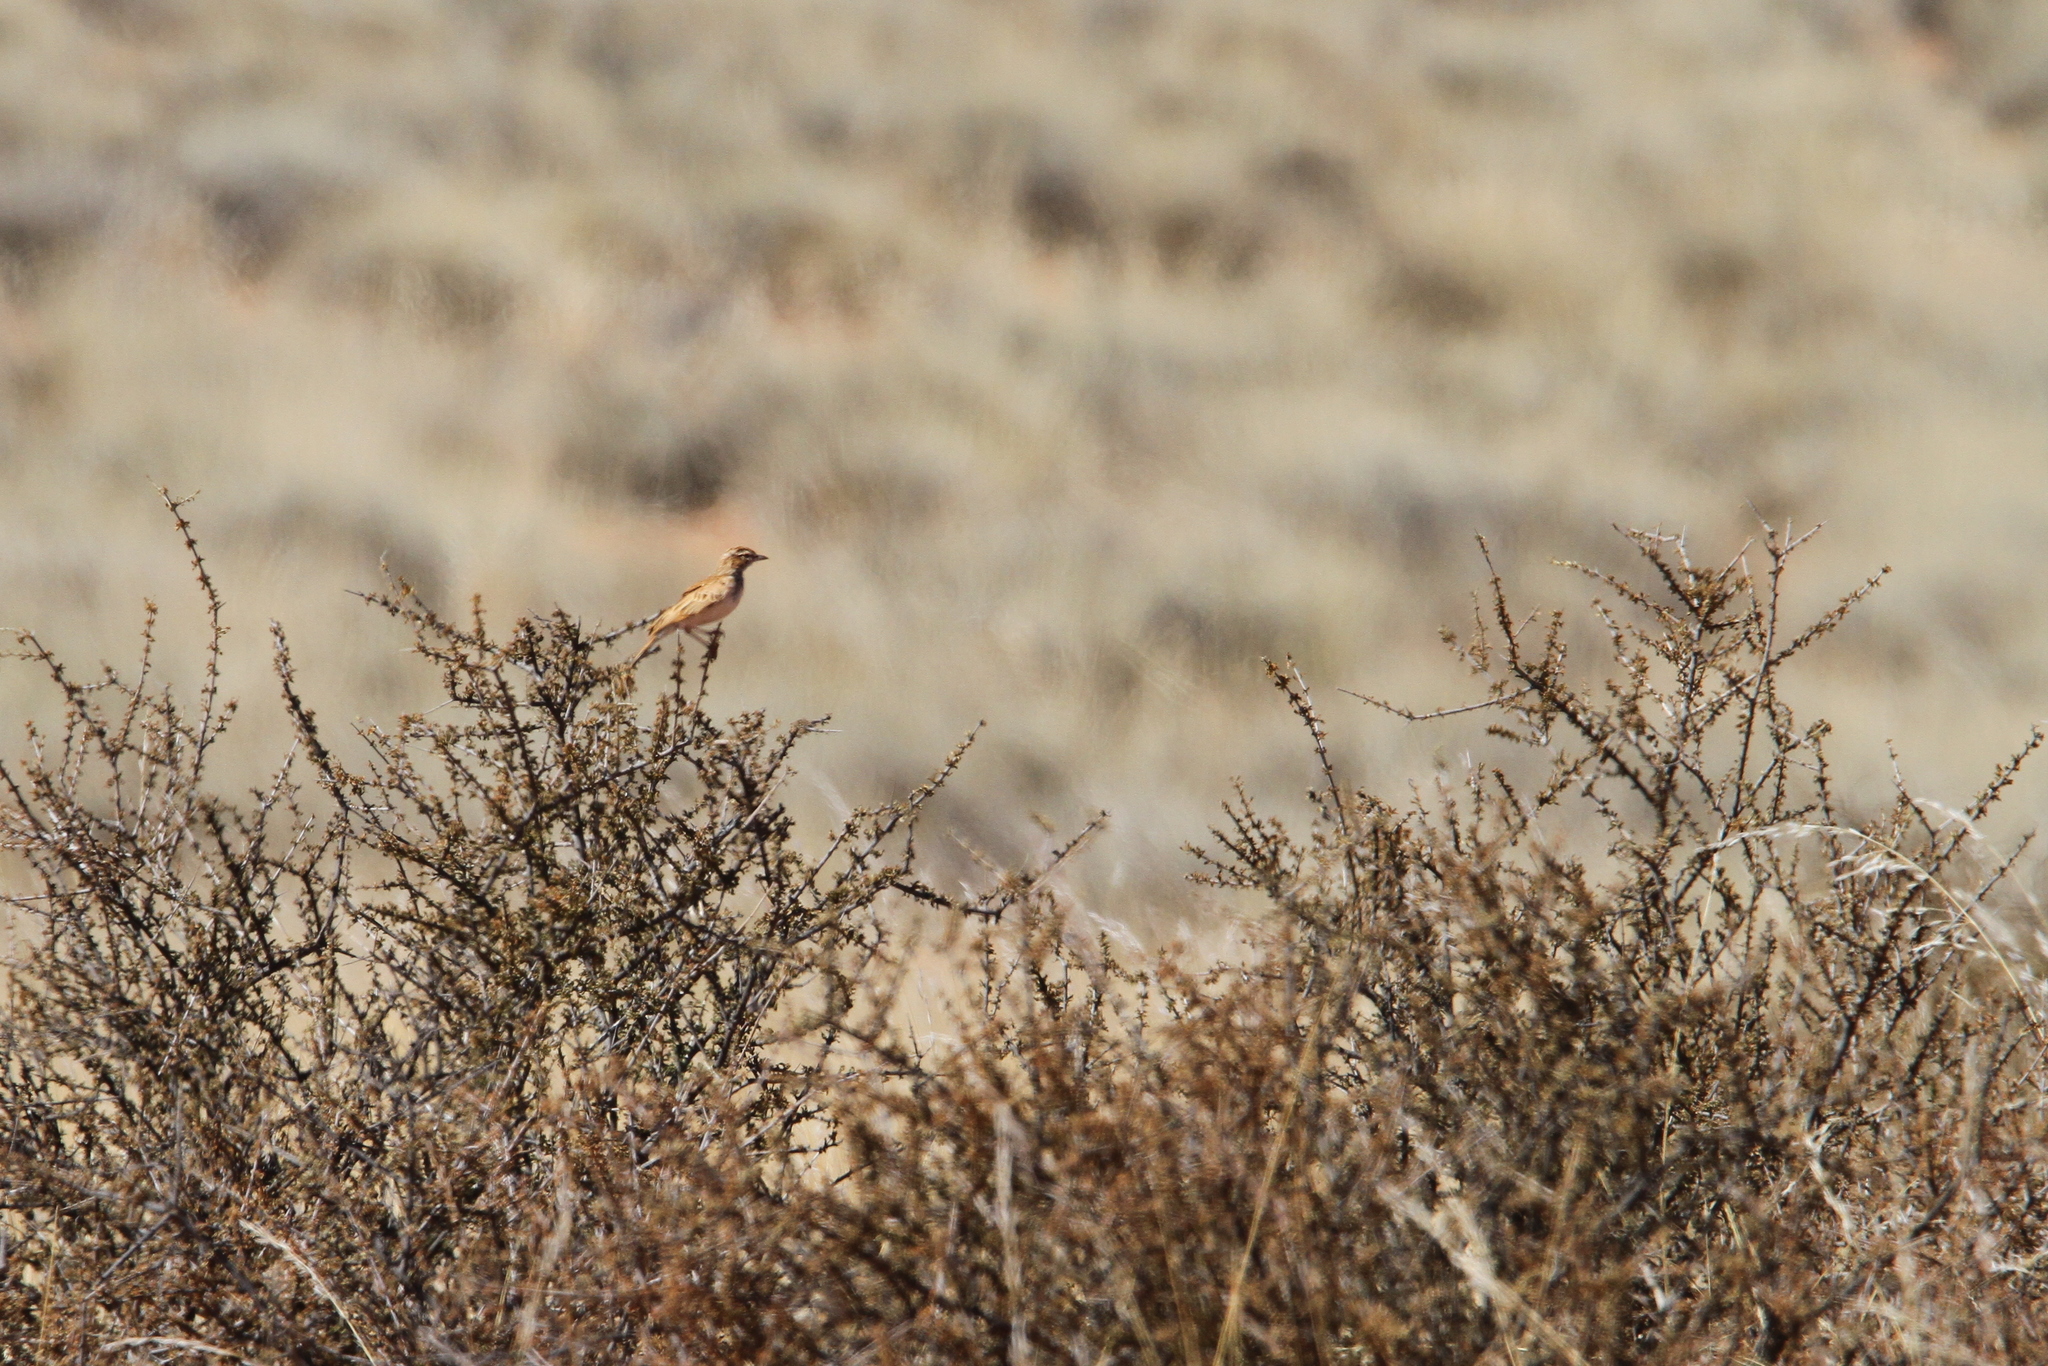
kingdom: Animalia
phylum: Chordata
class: Aves
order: Passeriformes
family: Alaudidae
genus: Calendulauda
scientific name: Calendulauda burra
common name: Red lark
